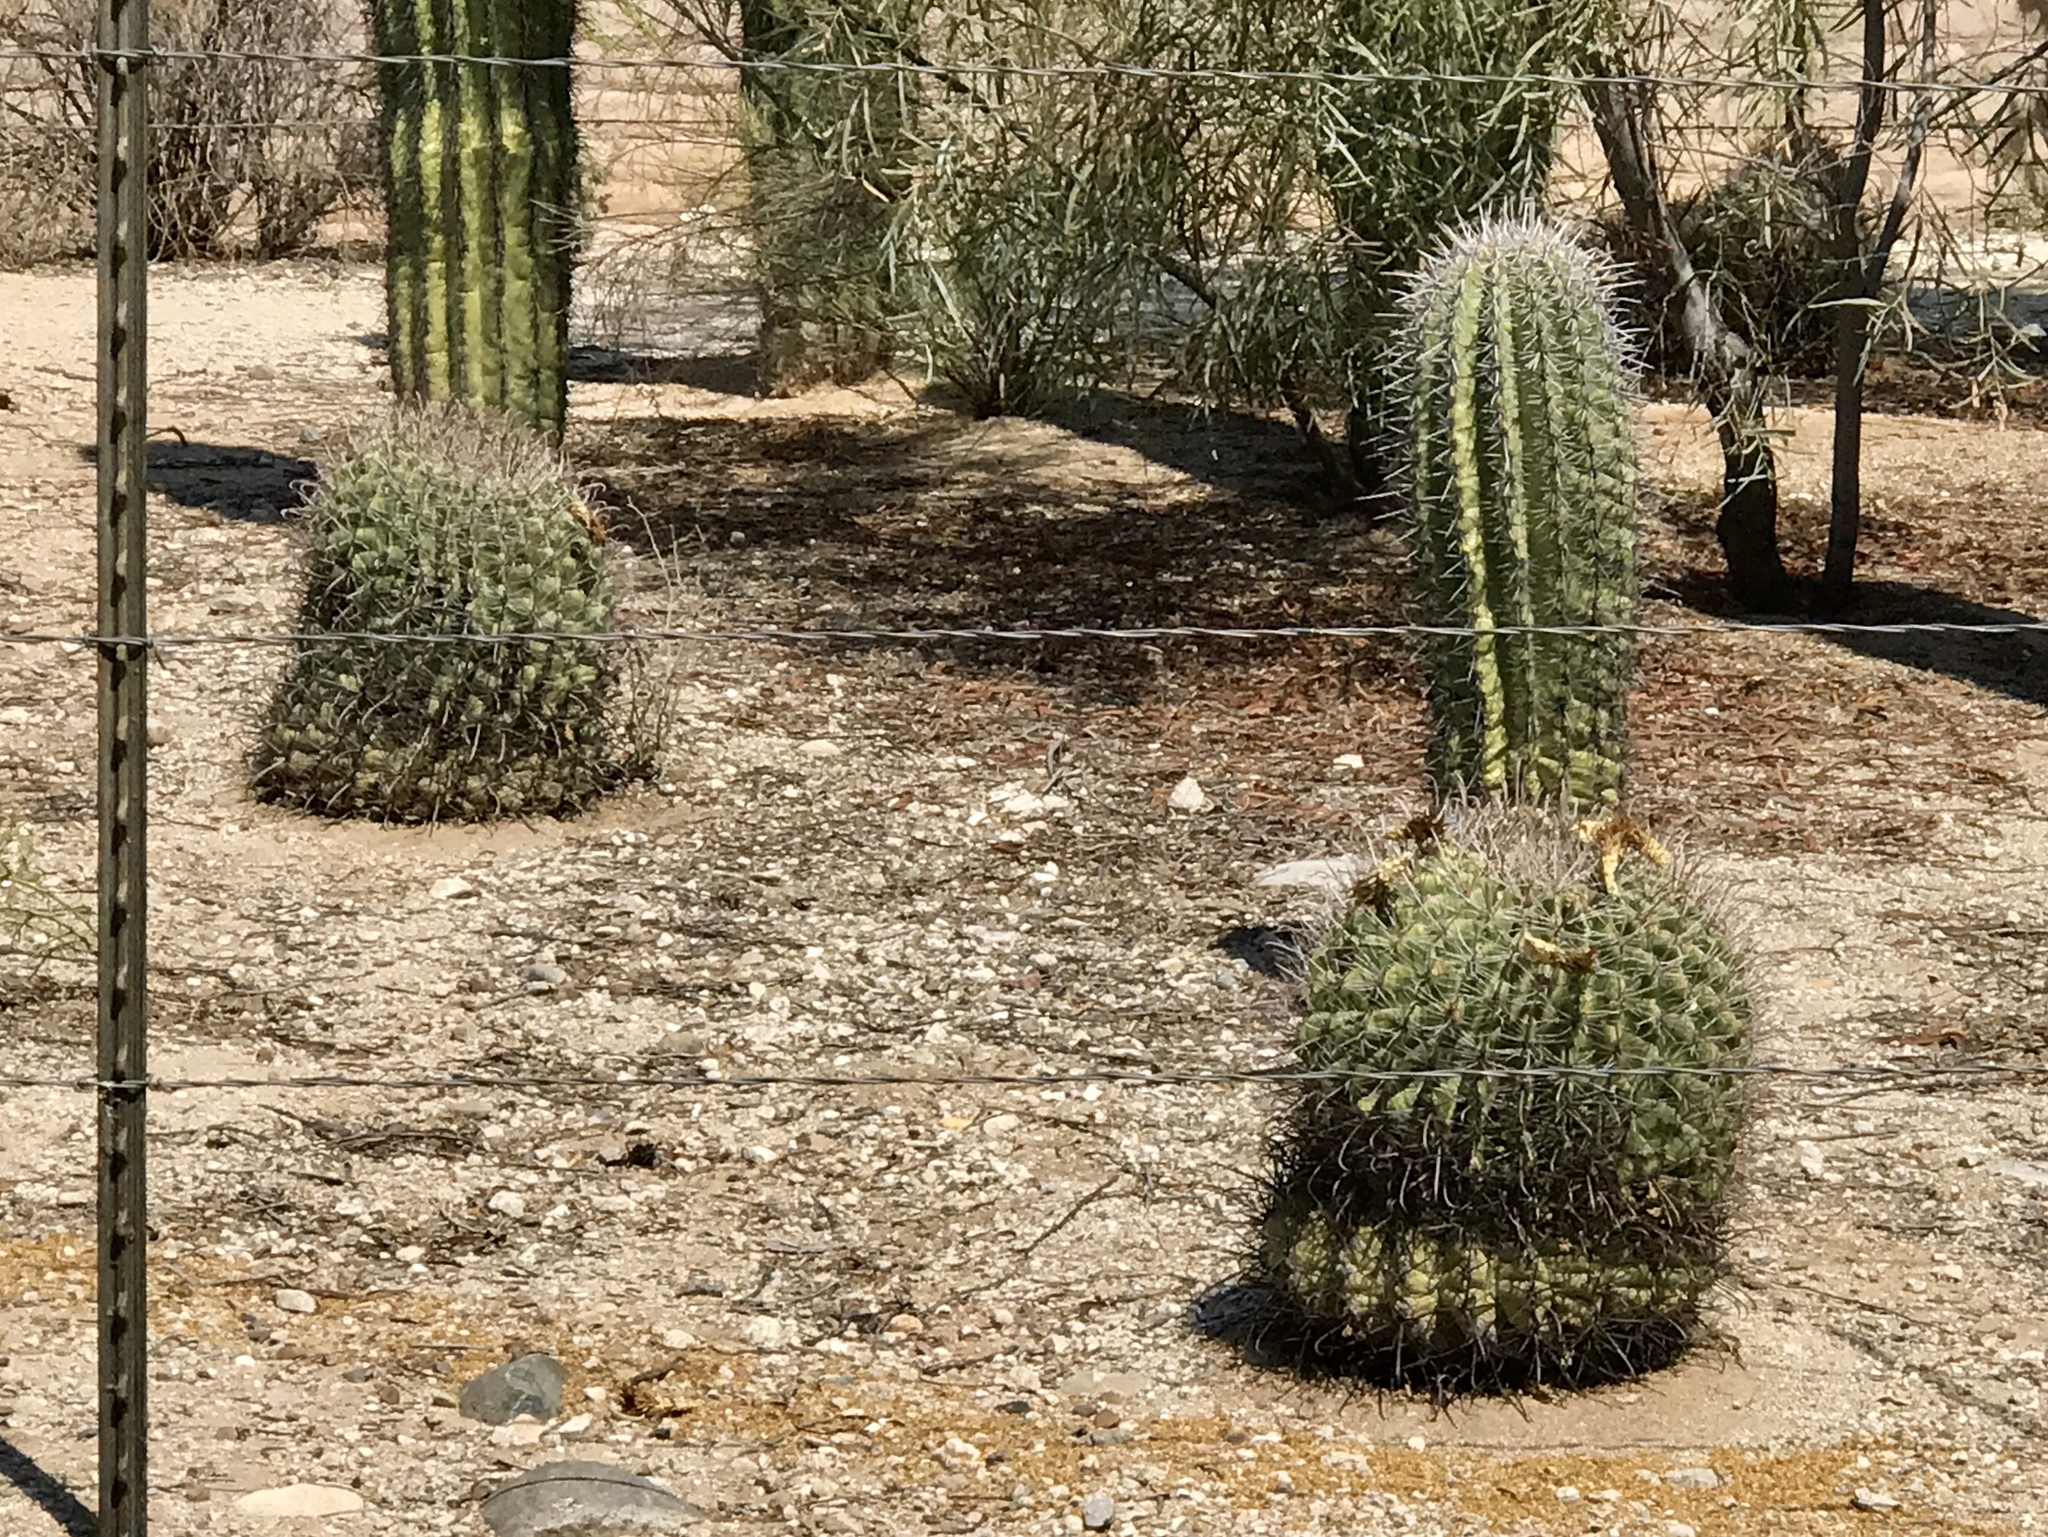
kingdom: Plantae
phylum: Tracheophyta
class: Magnoliopsida
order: Caryophyllales
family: Cactaceae
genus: Ferocactus
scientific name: Ferocactus wislizeni
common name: Candy barrel cactus
